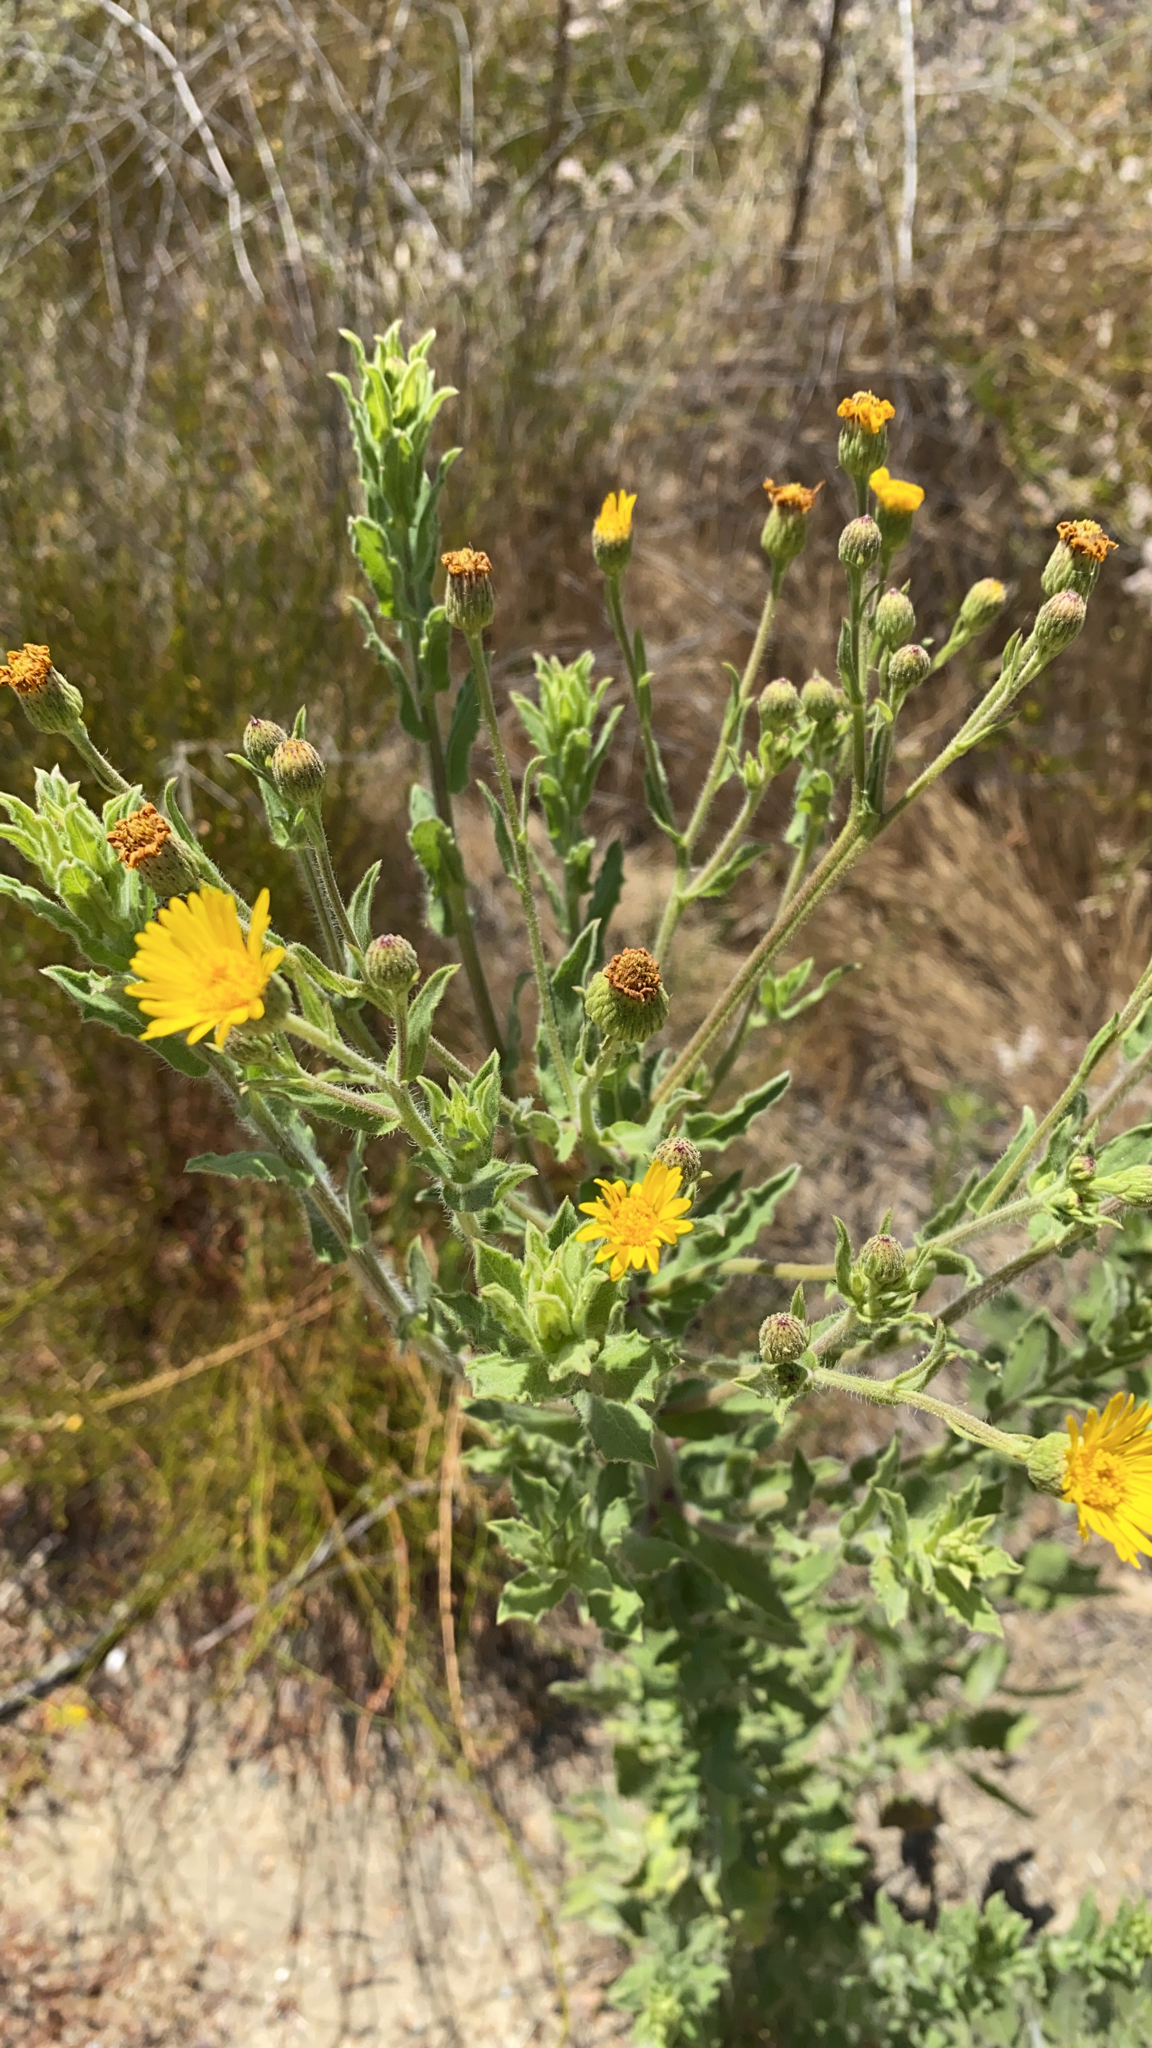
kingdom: Plantae
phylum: Tracheophyta
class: Magnoliopsida
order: Asterales
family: Asteraceae
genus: Heterotheca
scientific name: Heterotheca grandiflora
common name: Telegraphweed
